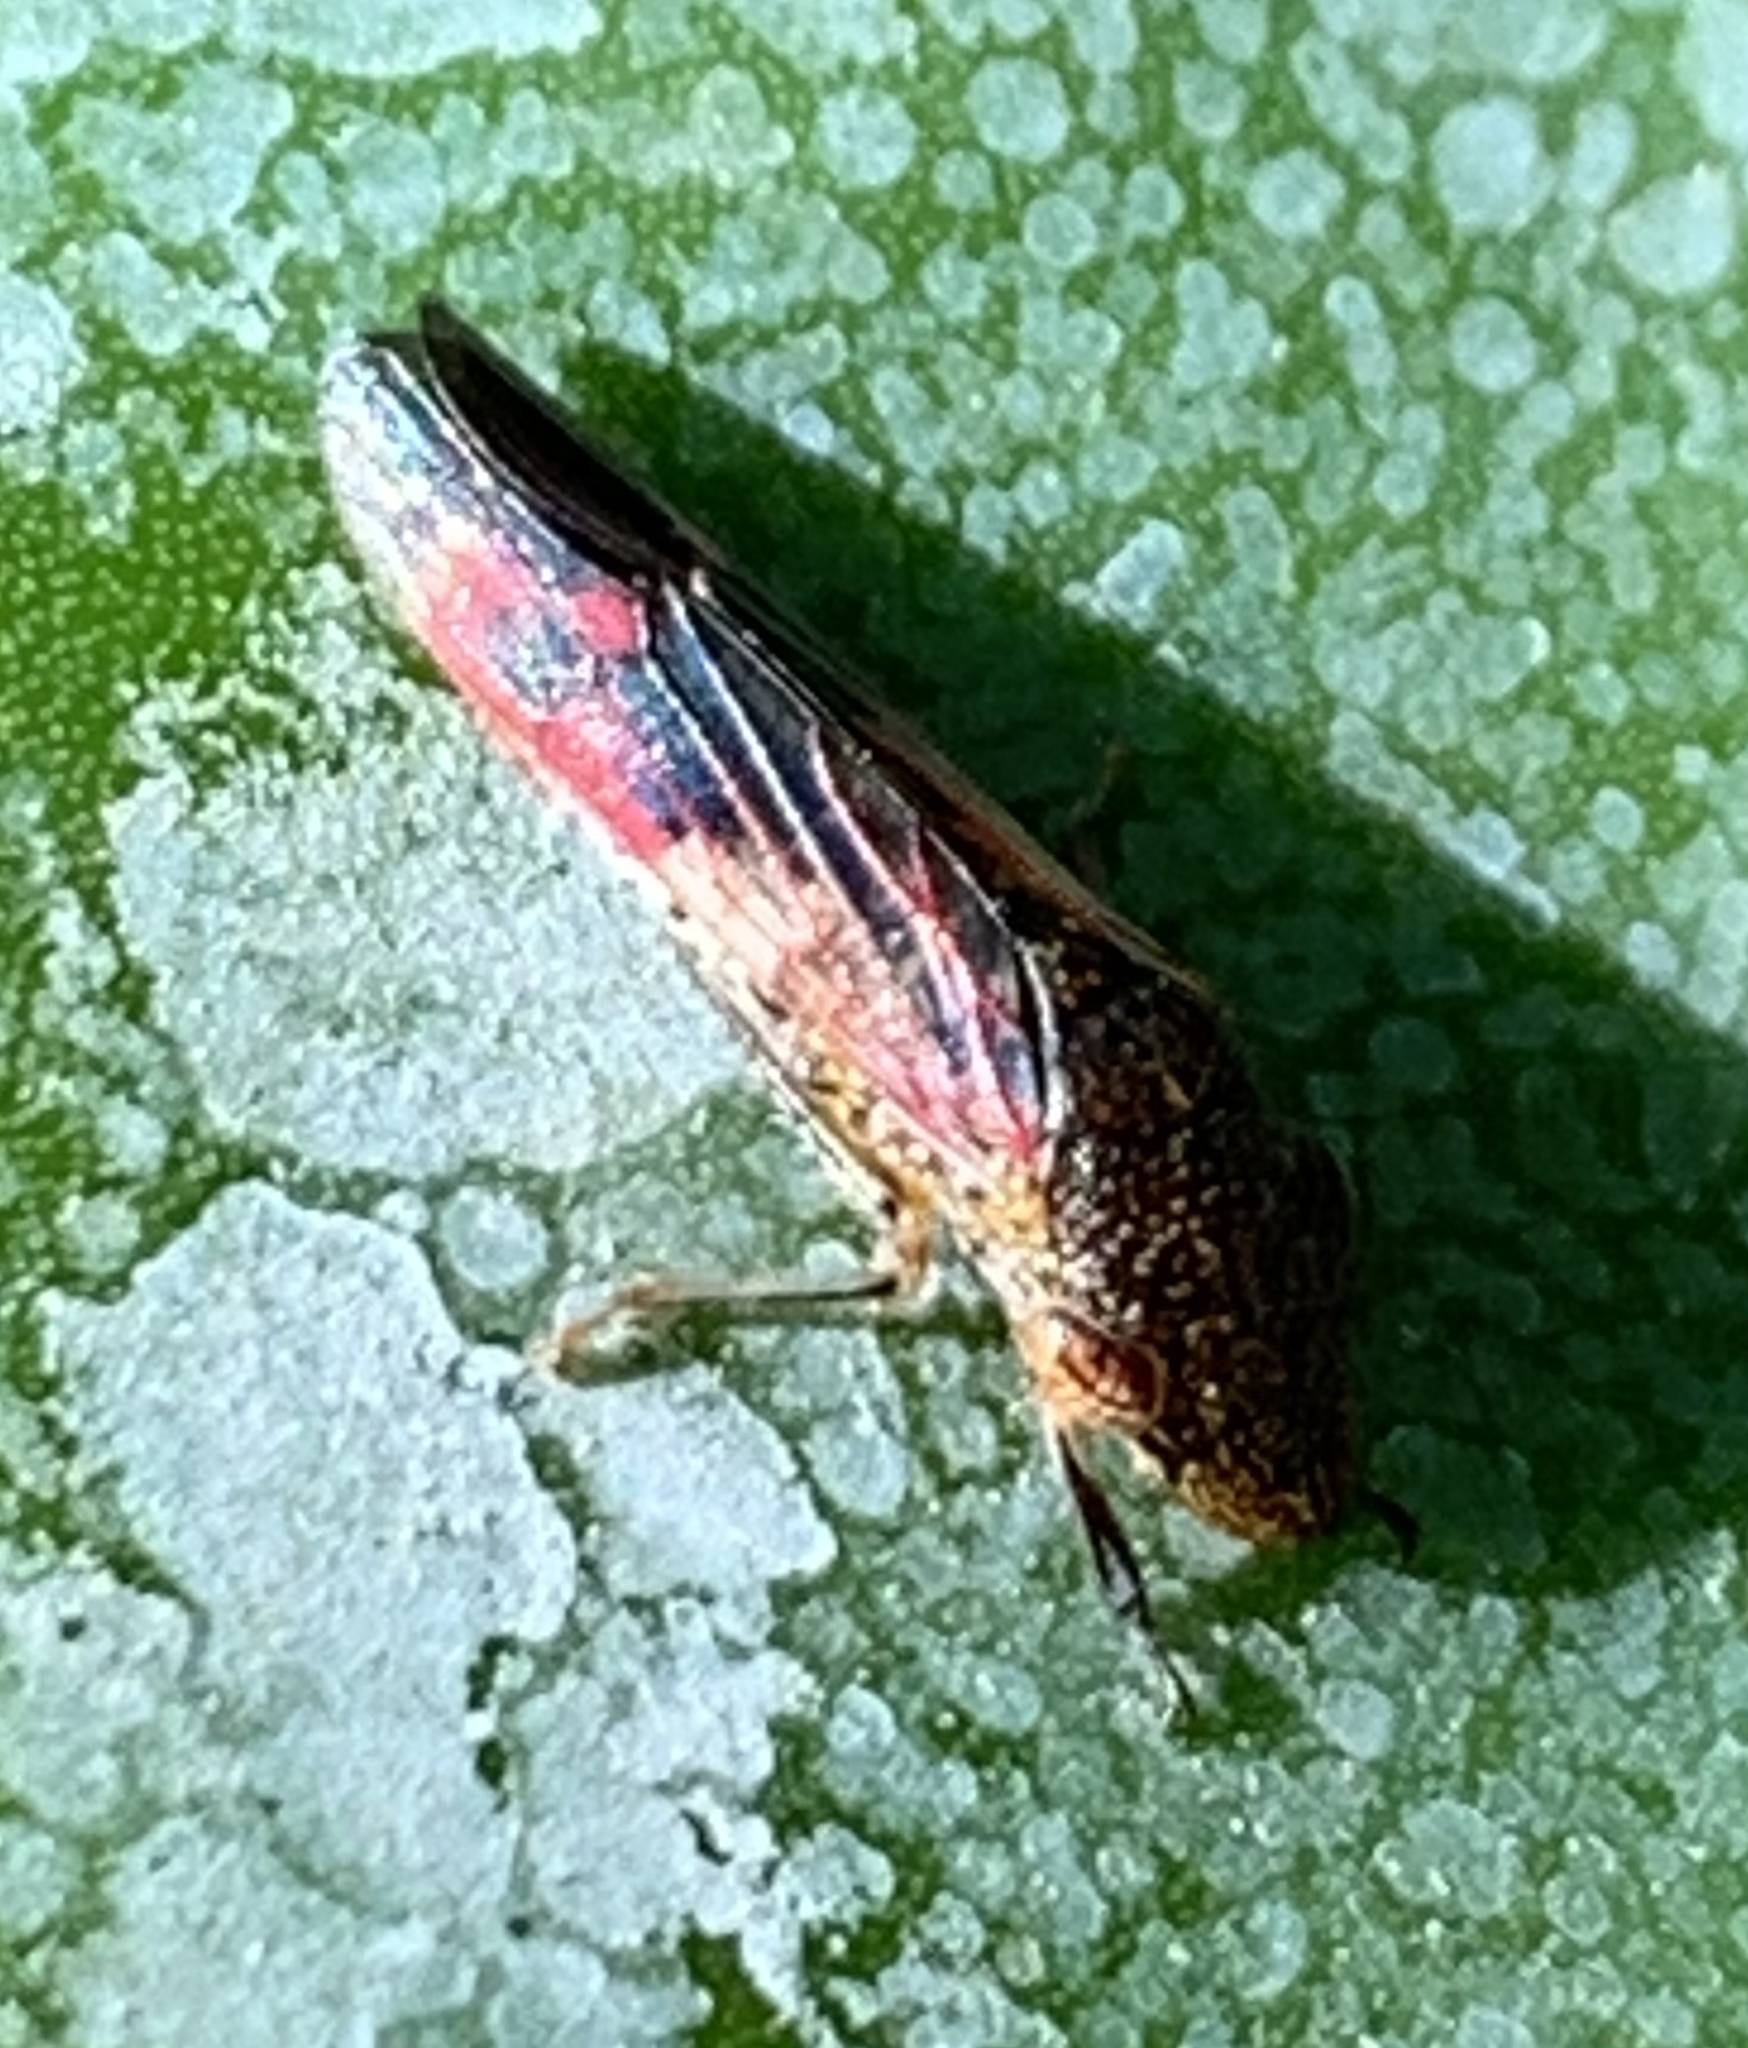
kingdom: Animalia
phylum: Arthropoda
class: Insecta
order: Hemiptera
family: Cicadellidae
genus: Homalodisca
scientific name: Homalodisca vitripennis
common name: Glassy-winged sharpshooter
